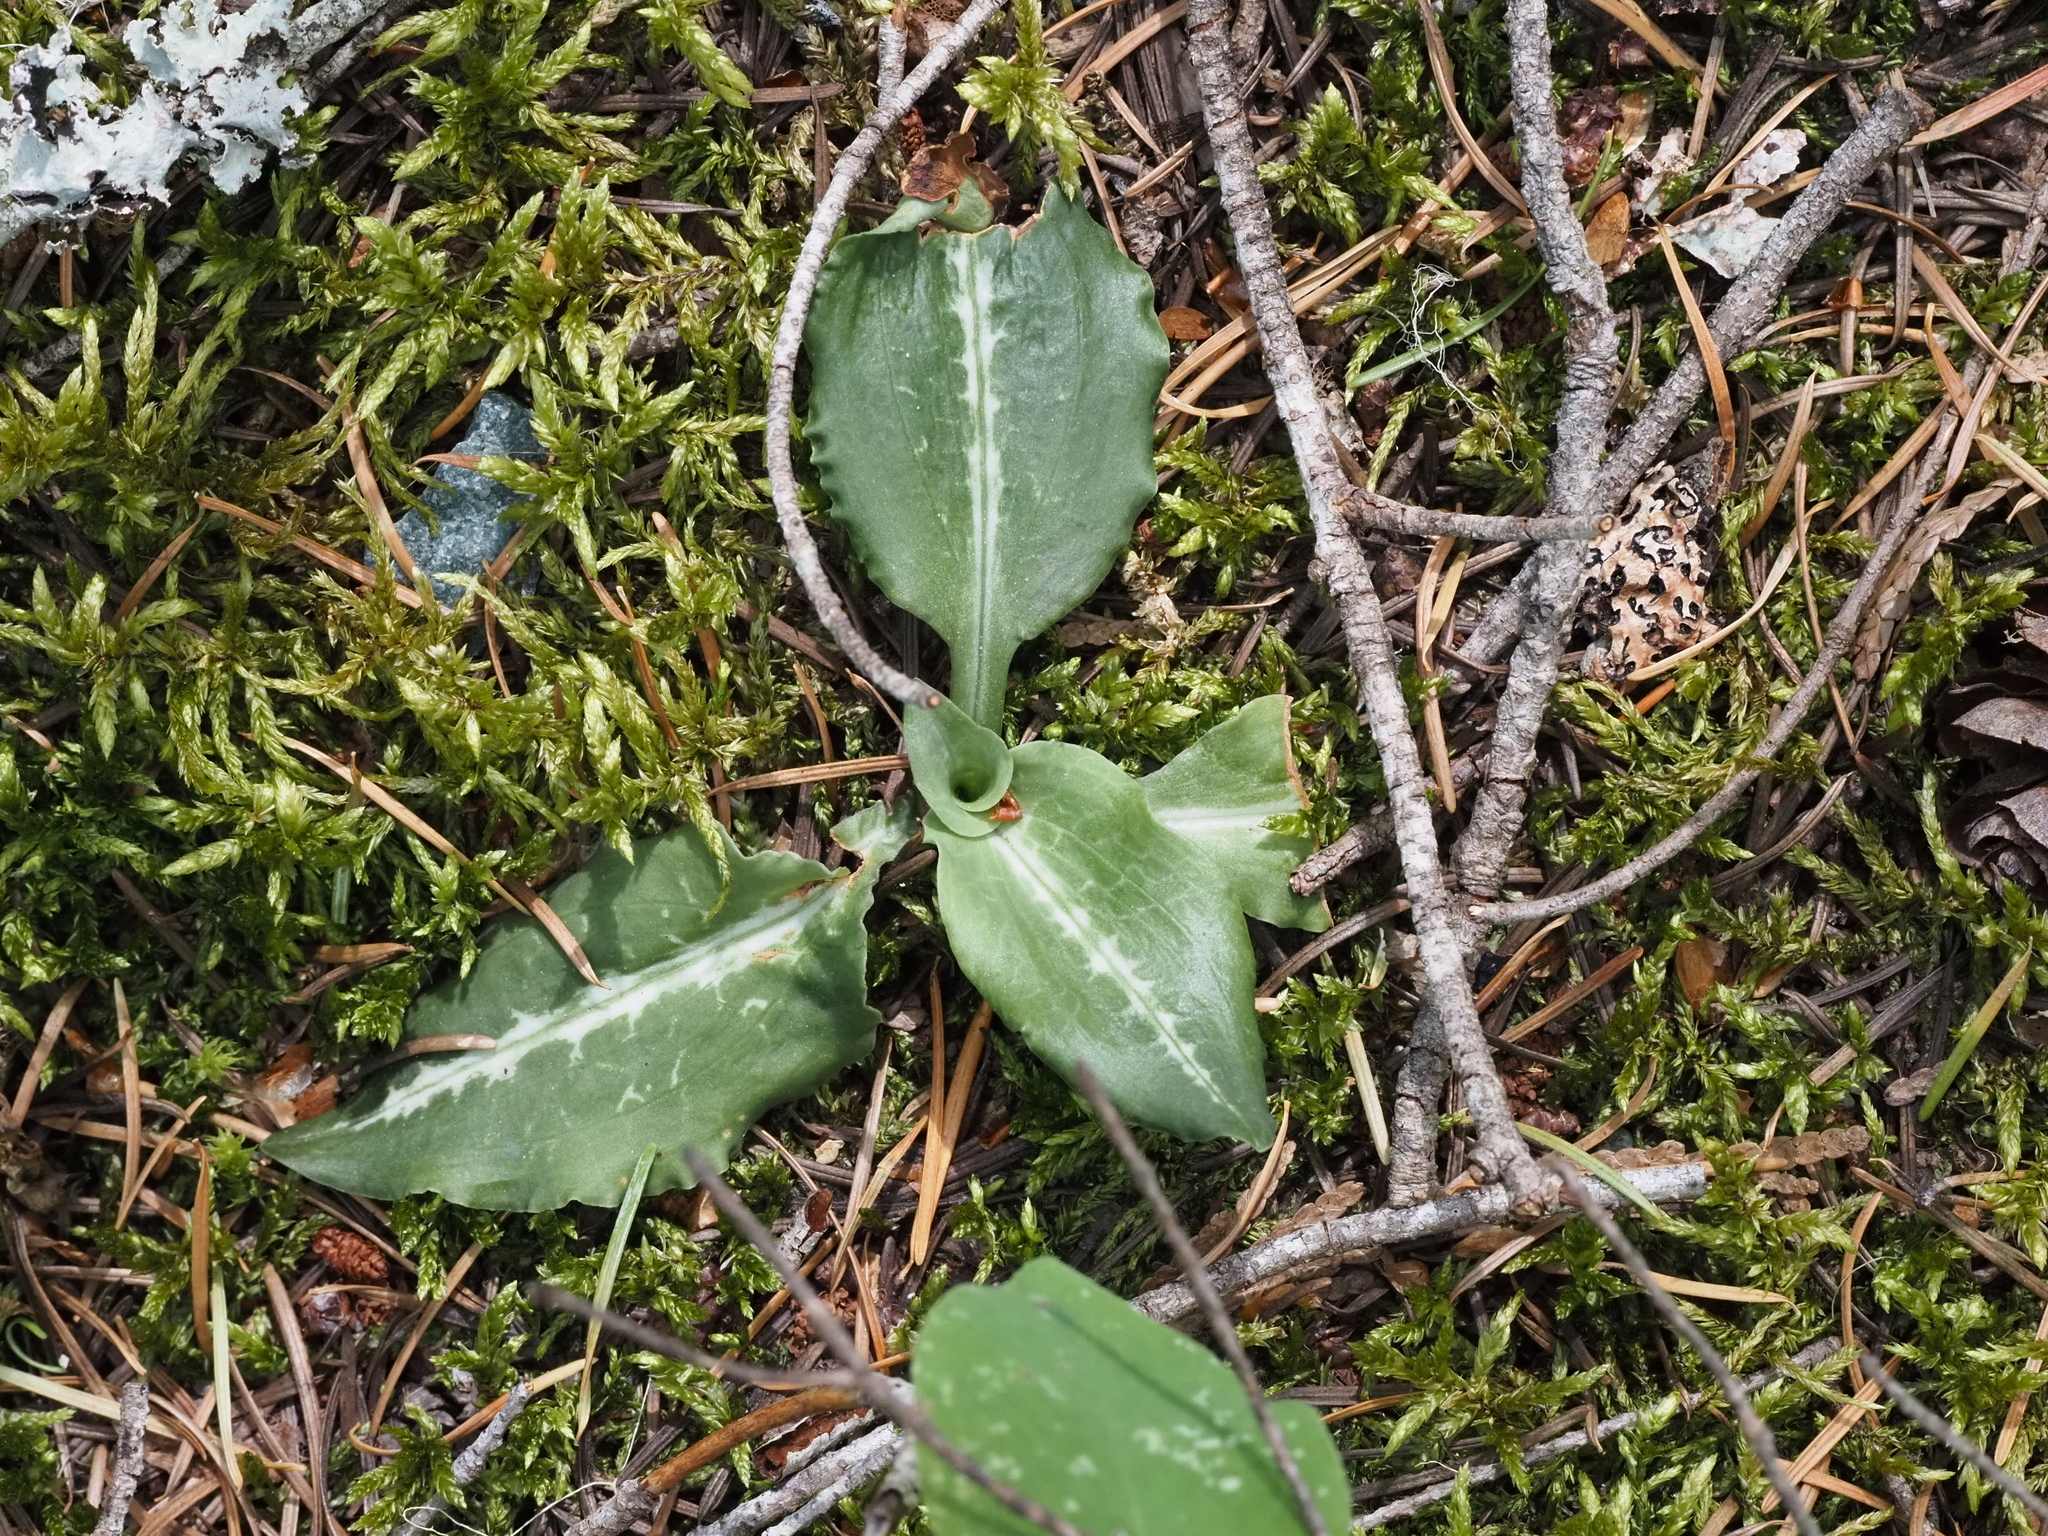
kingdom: Plantae
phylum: Tracheophyta
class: Liliopsida
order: Asparagales
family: Orchidaceae
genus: Goodyera
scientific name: Goodyera oblongifolia
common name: Giant rattlesnake-plantain
